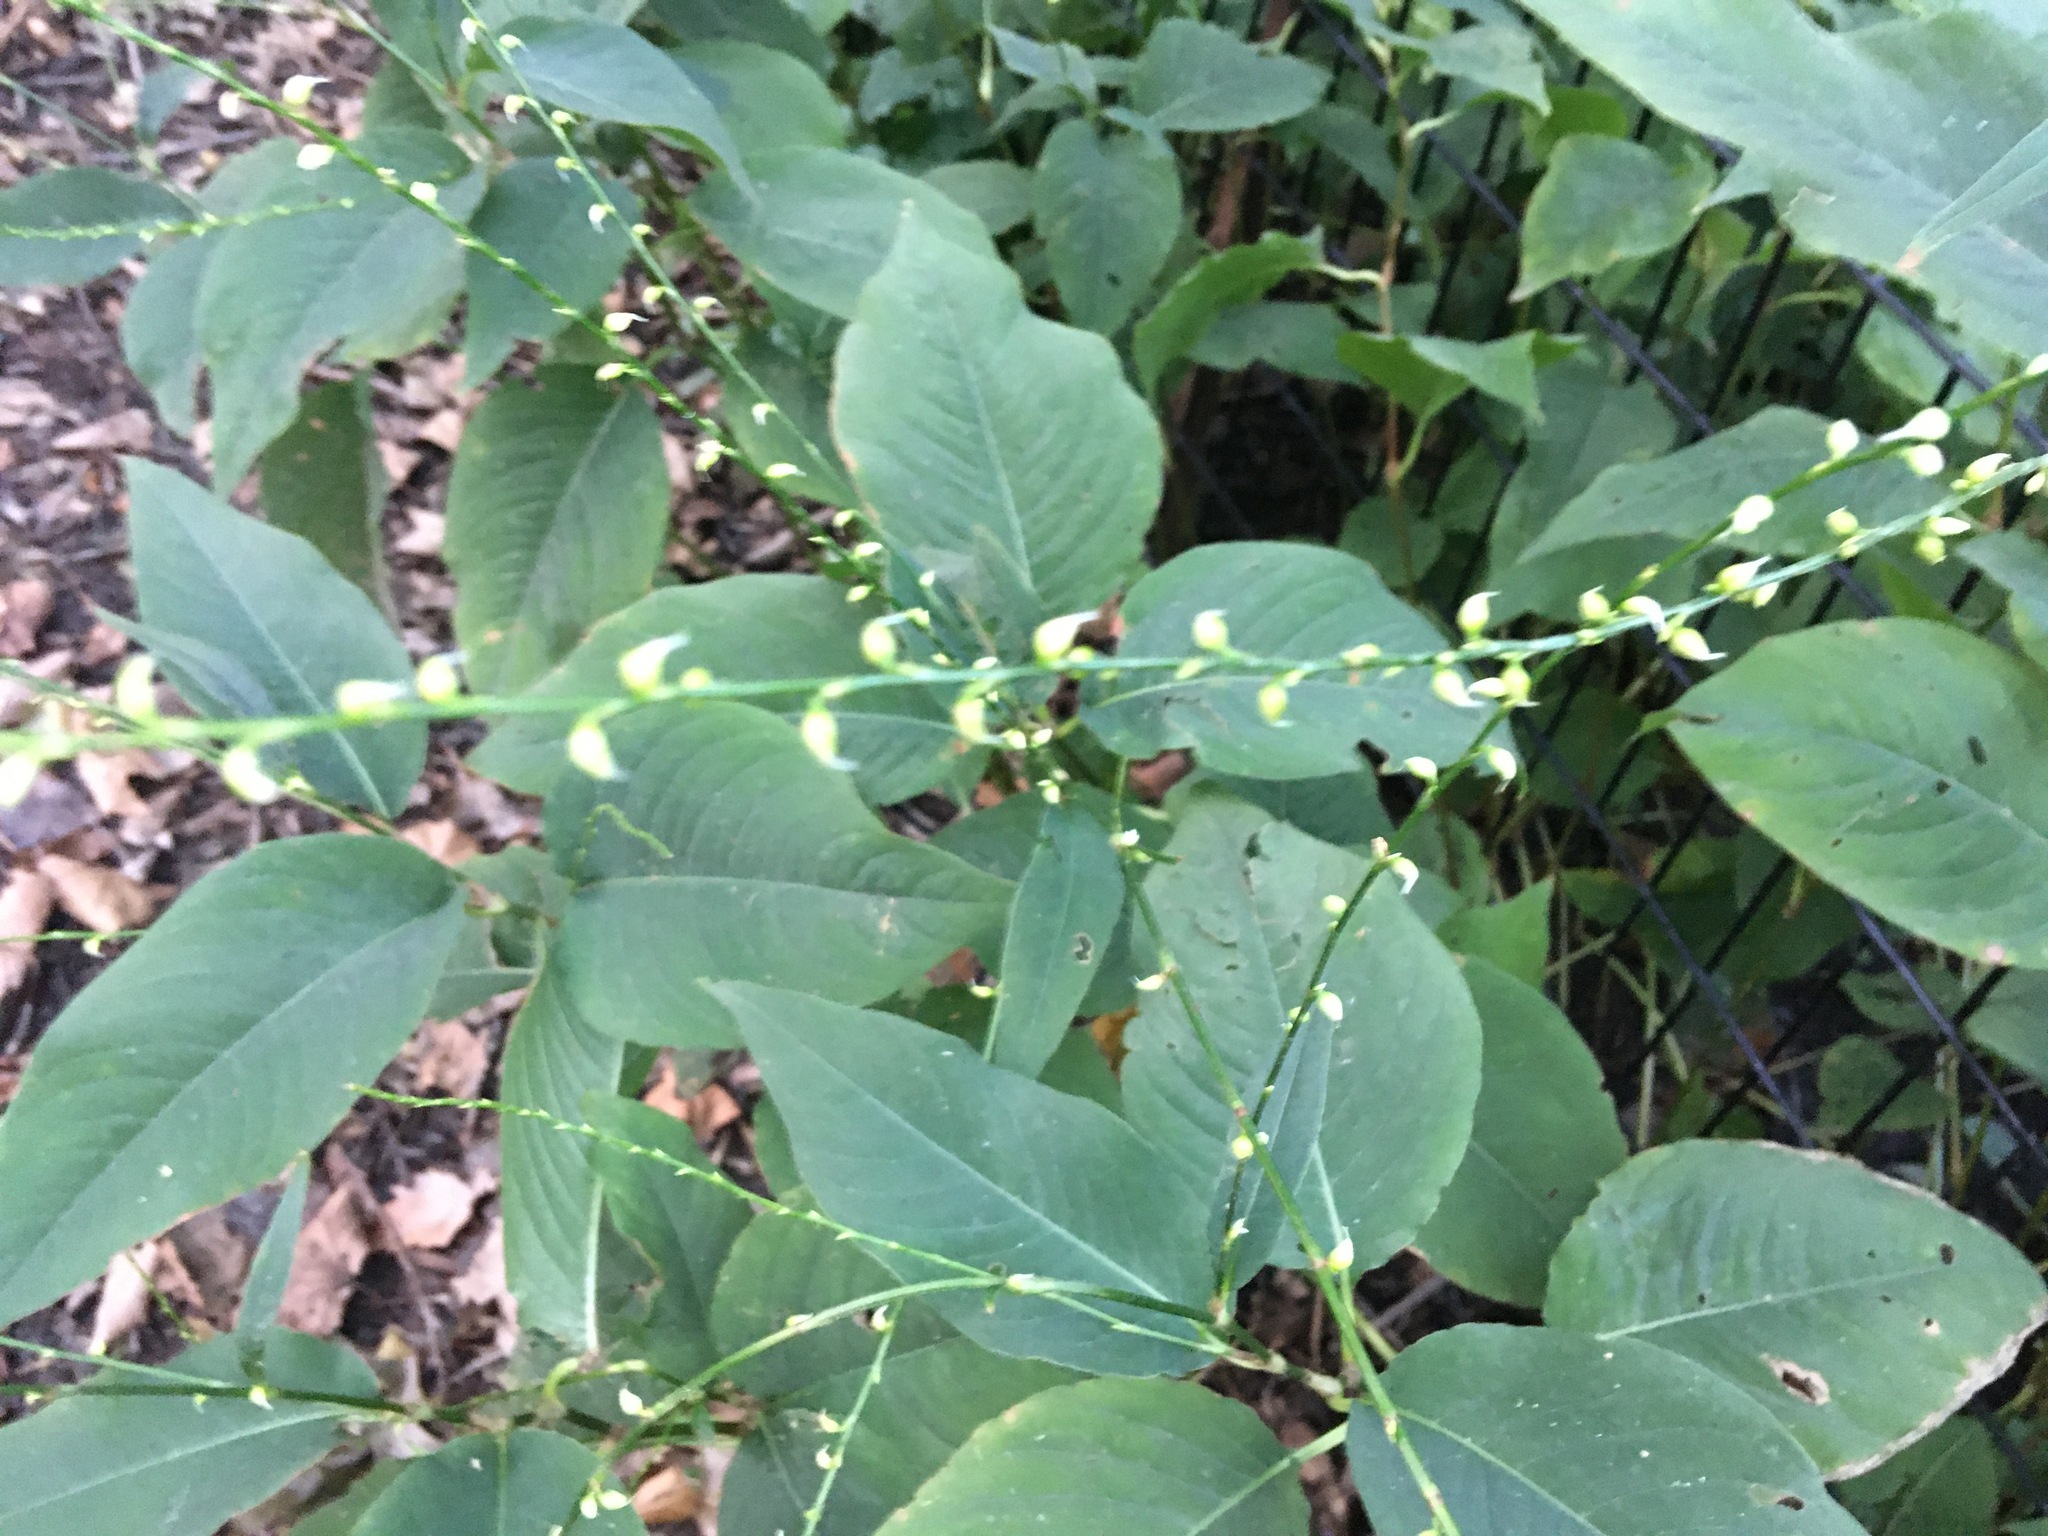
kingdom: Plantae
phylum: Tracheophyta
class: Magnoliopsida
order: Caryophyllales
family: Polygonaceae
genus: Persicaria
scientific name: Persicaria virginiana
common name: Jumpseed
